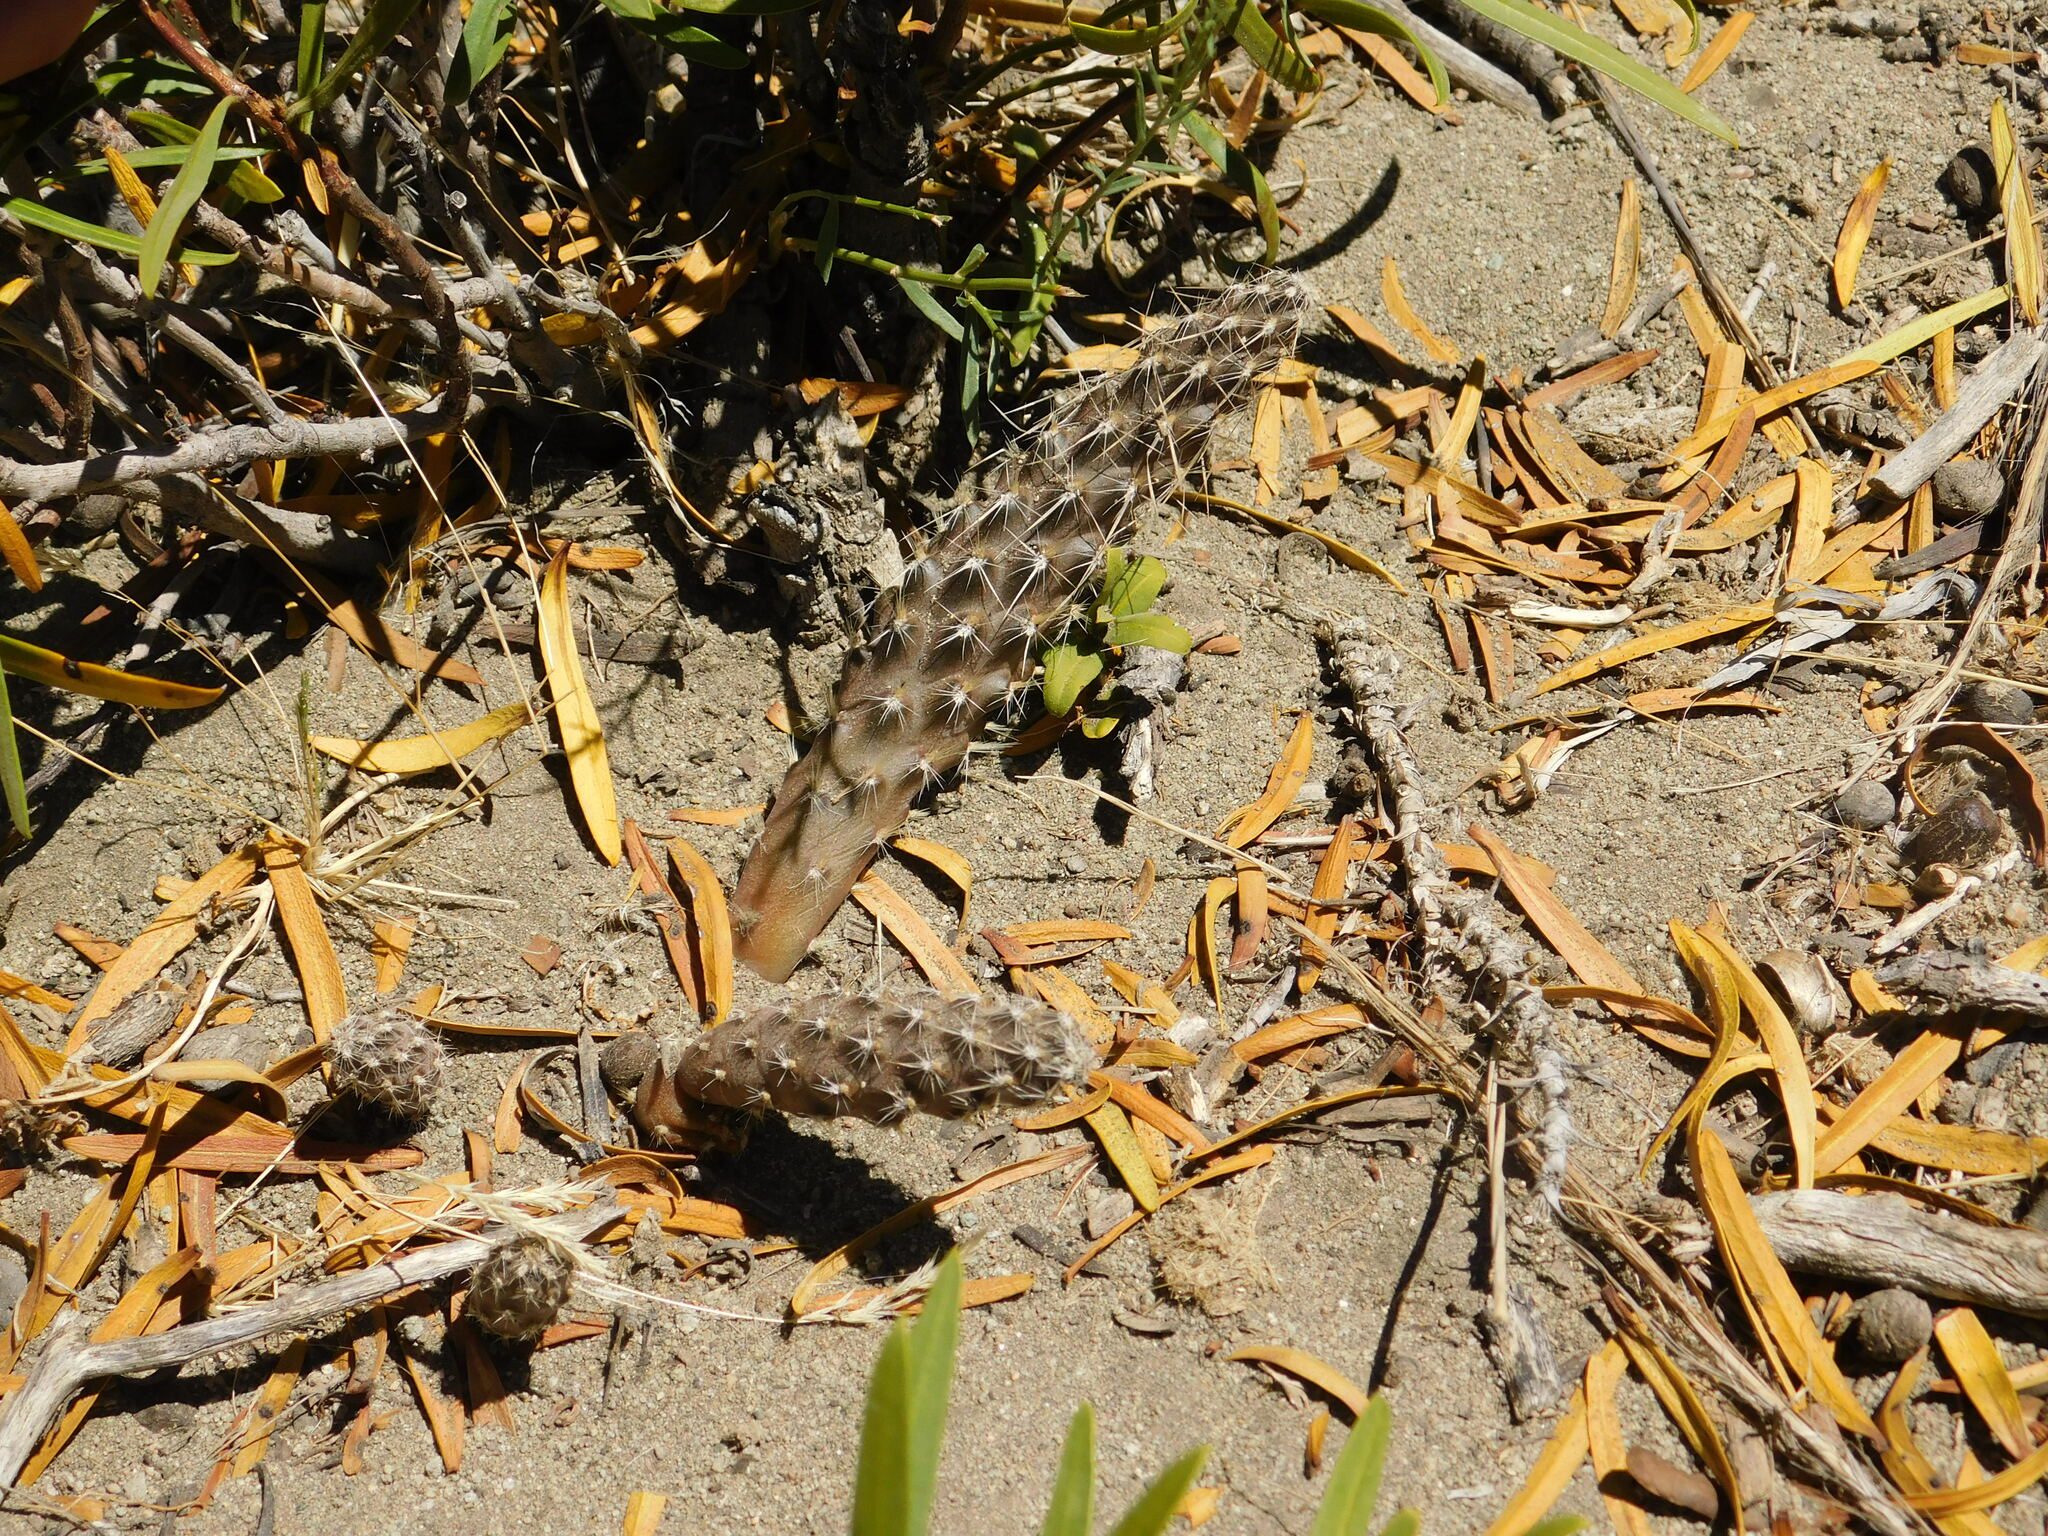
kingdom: Plantae
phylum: Tracheophyta
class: Magnoliopsida
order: Caryophyllales
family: Cactaceae
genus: Pterocactus
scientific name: Pterocactus fischeri
